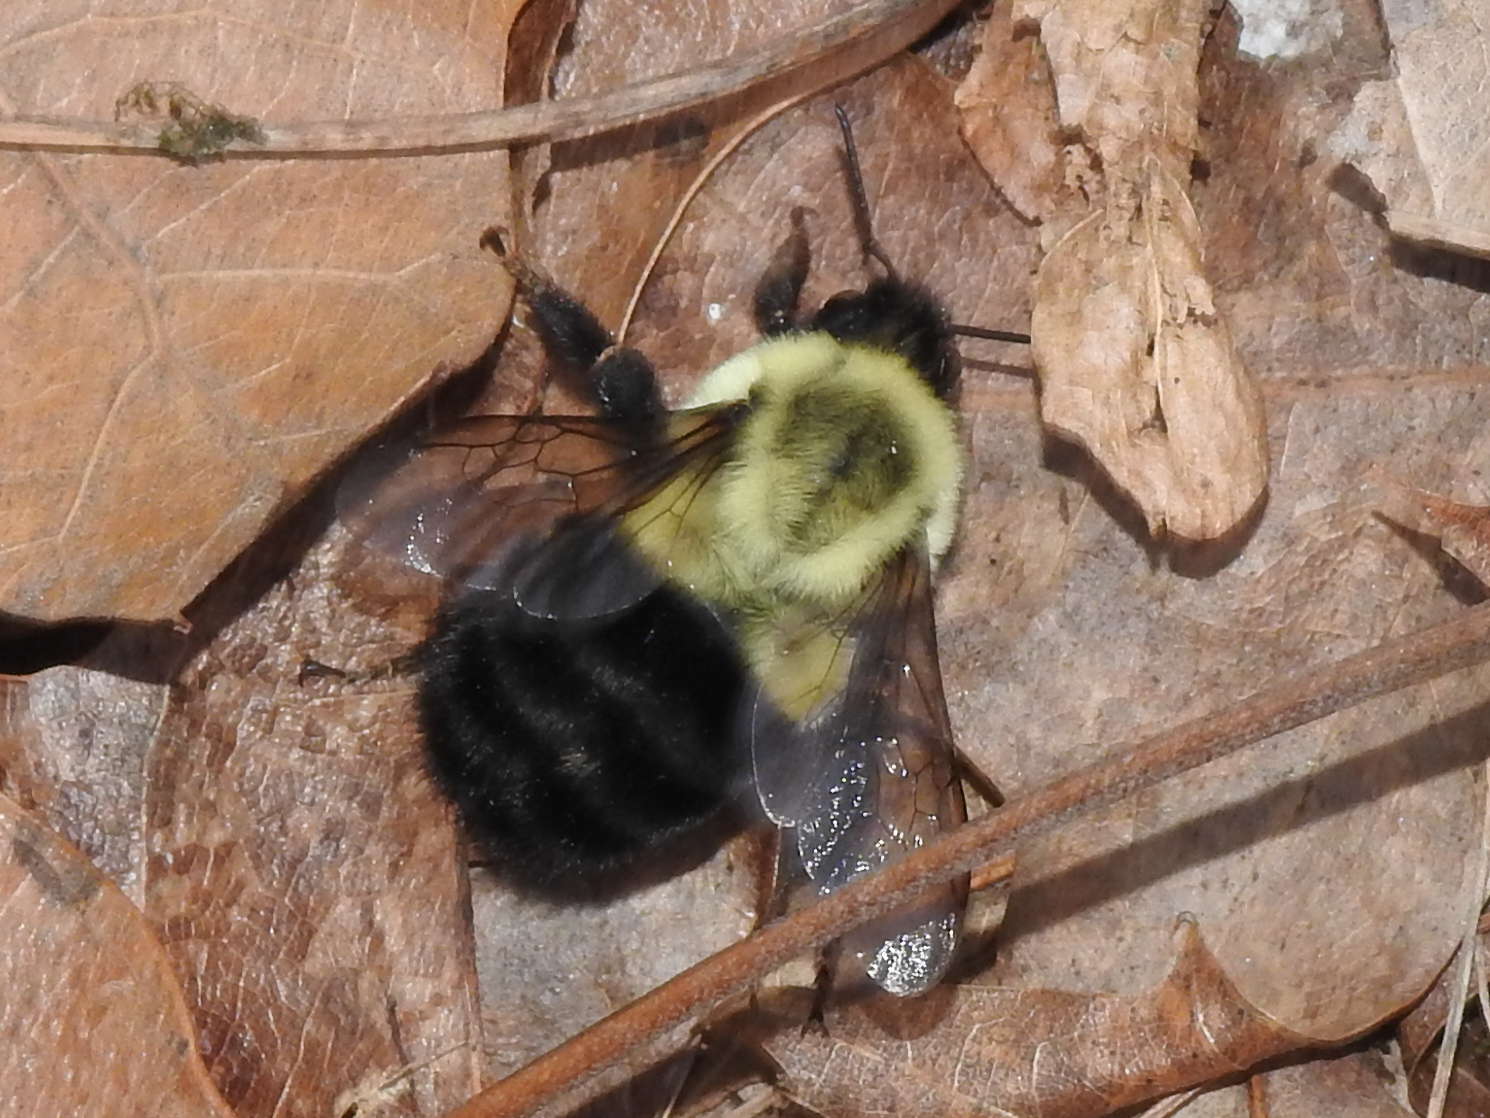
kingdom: Animalia
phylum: Arthropoda
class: Insecta
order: Hymenoptera
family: Apidae
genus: Bombus
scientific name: Bombus impatiens
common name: Common eastern bumble bee
